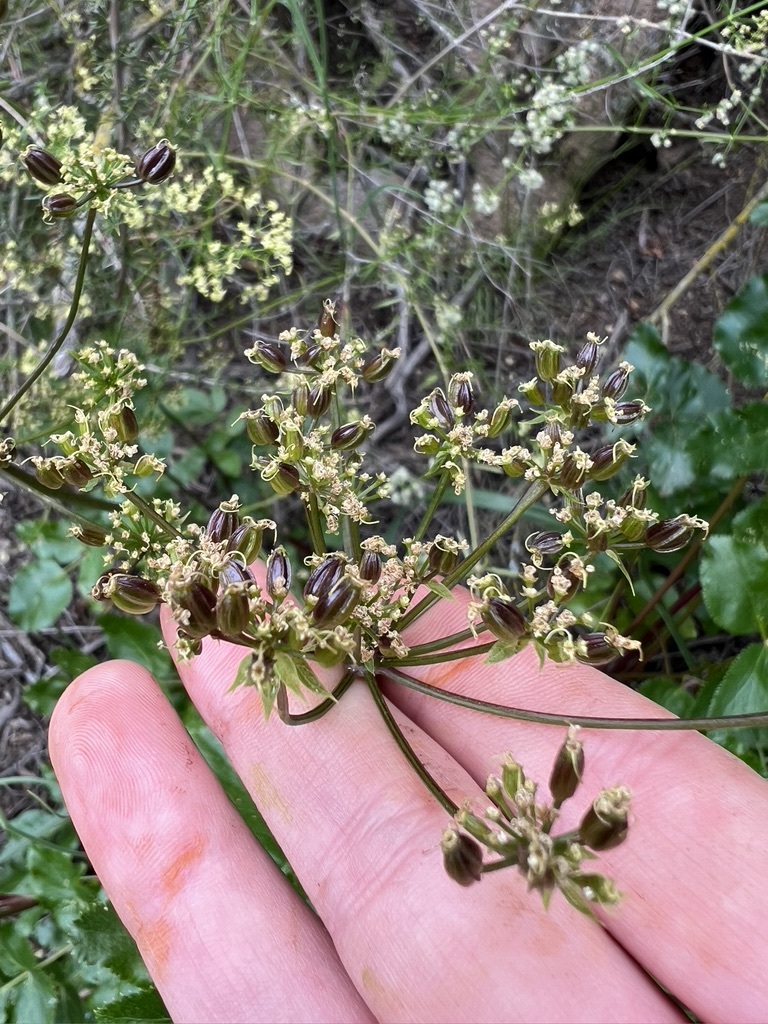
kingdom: Plantae
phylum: Tracheophyta
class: Magnoliopsida
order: Apiales
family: Apiaceae
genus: Tauschia
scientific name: Tauschia arguta
